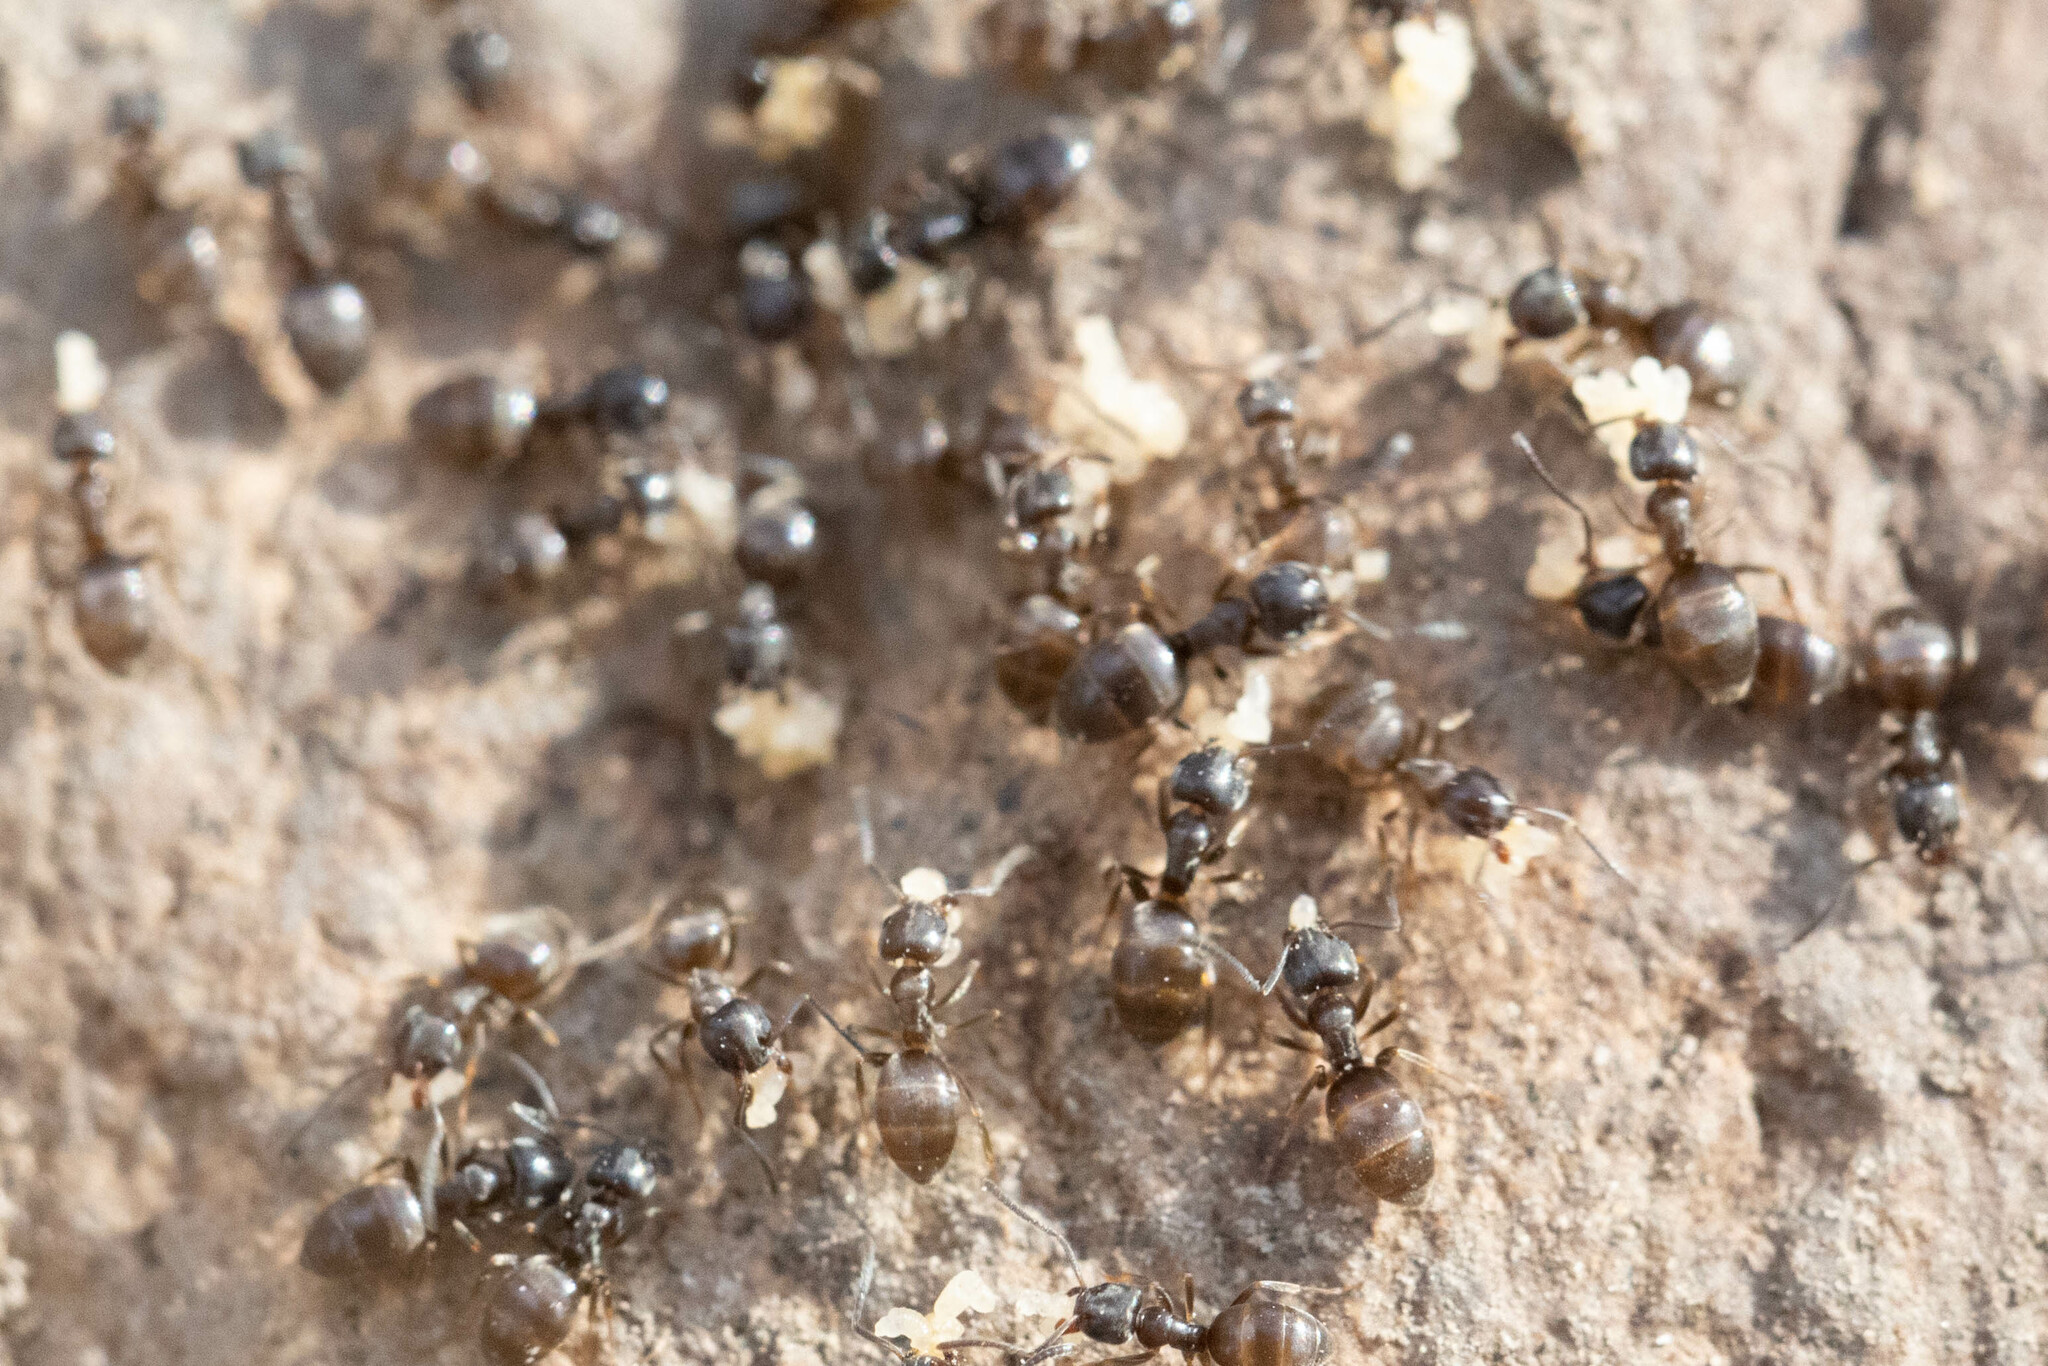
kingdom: Animalia
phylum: Arthropoda
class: Insecta
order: Hymenoptera
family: Formicidae
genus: Tapinoma
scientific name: Tapinoma sessile
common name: Odorous house ant
